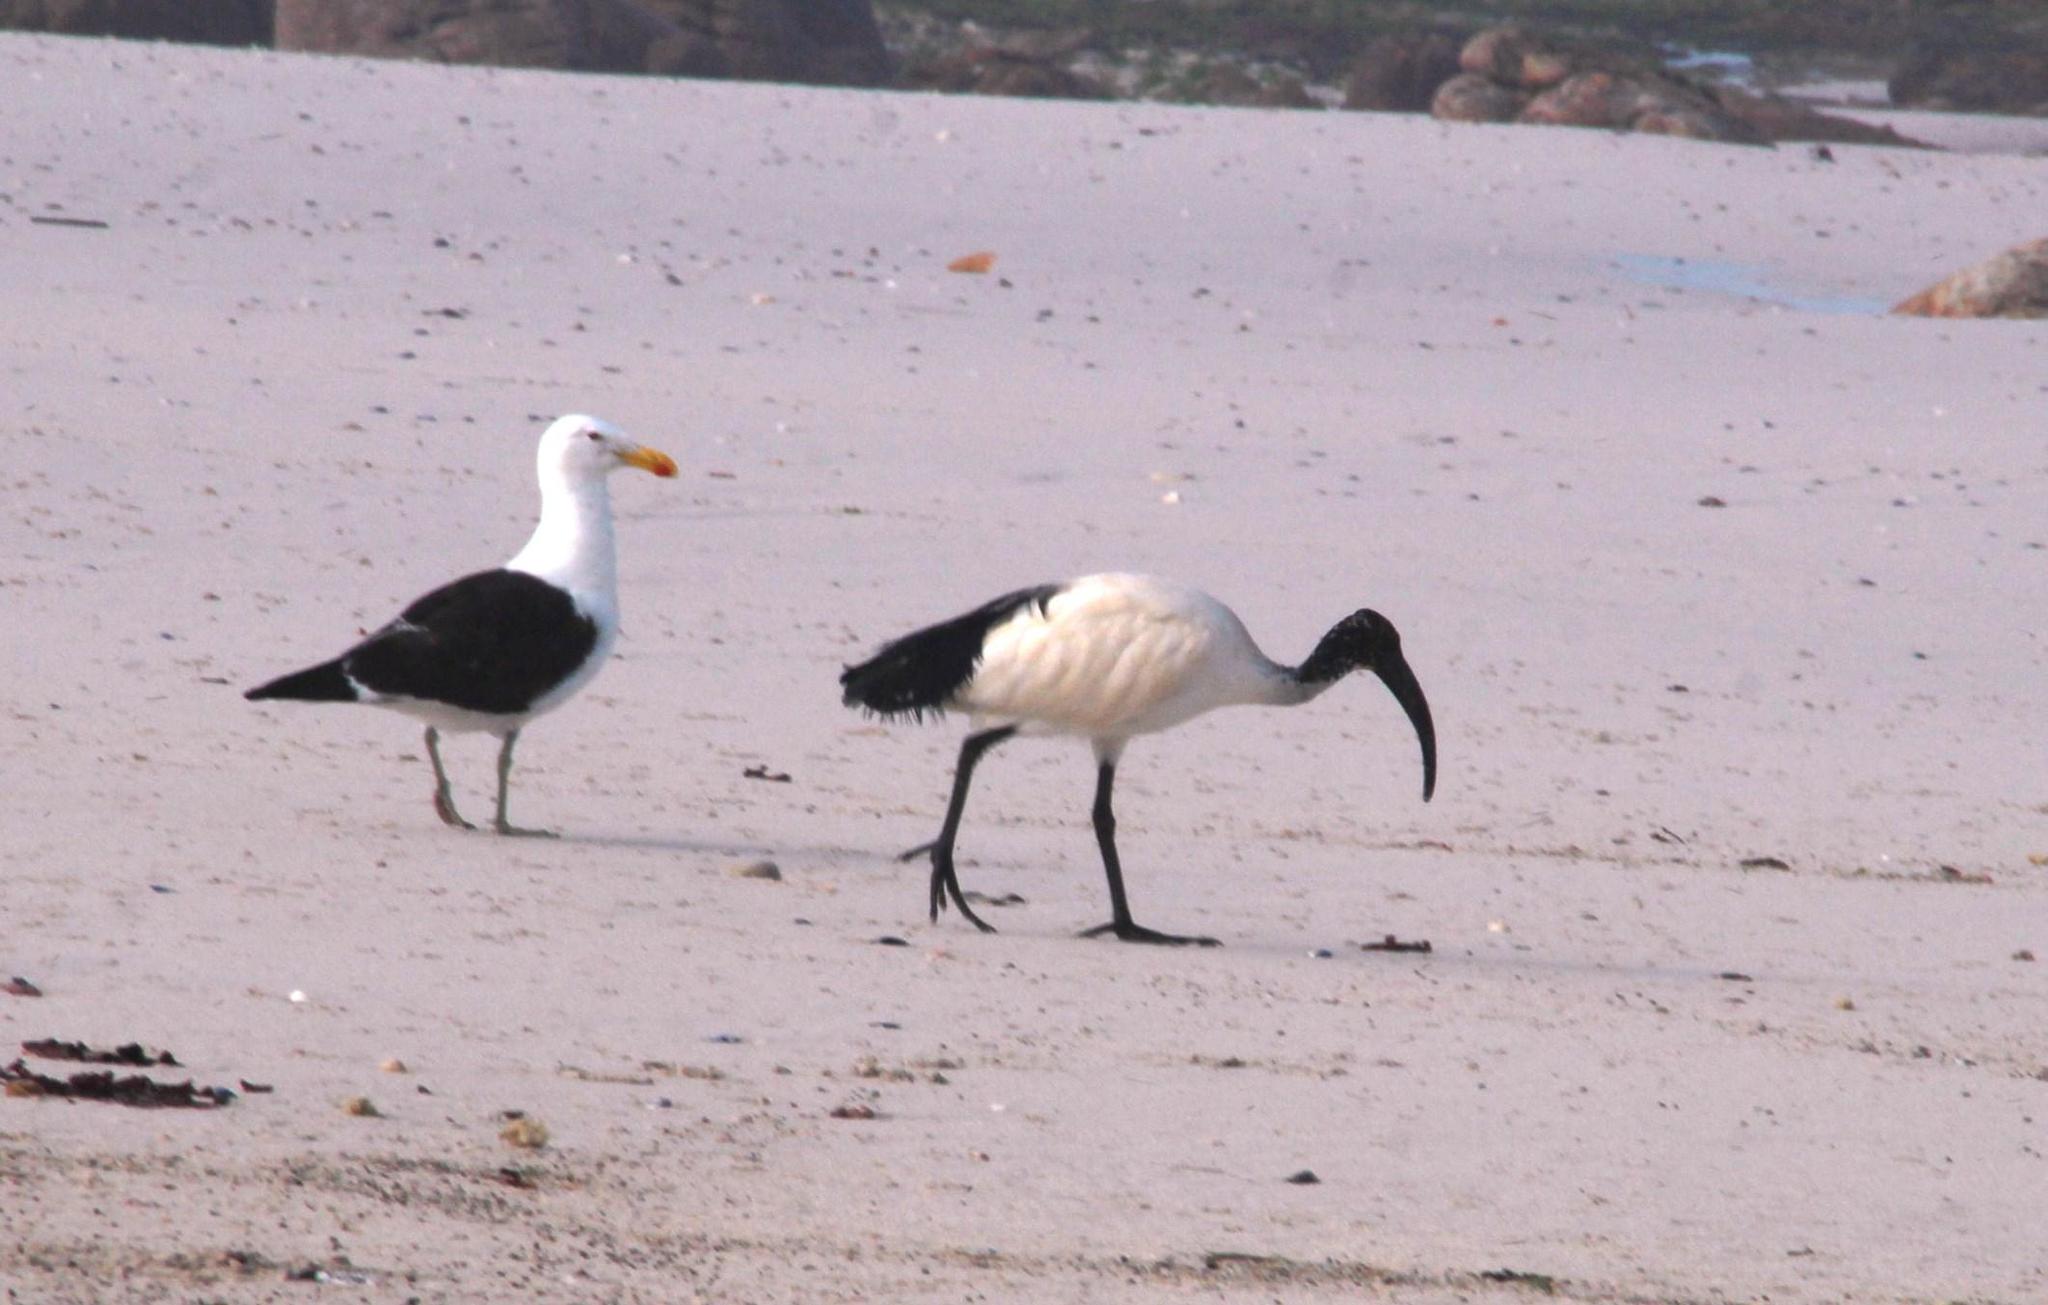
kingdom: Animalia
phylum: Chordata
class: Aves
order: Charadriiformes
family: Laridae
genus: Larus
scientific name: Larus dominicanus
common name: Kelp gull
